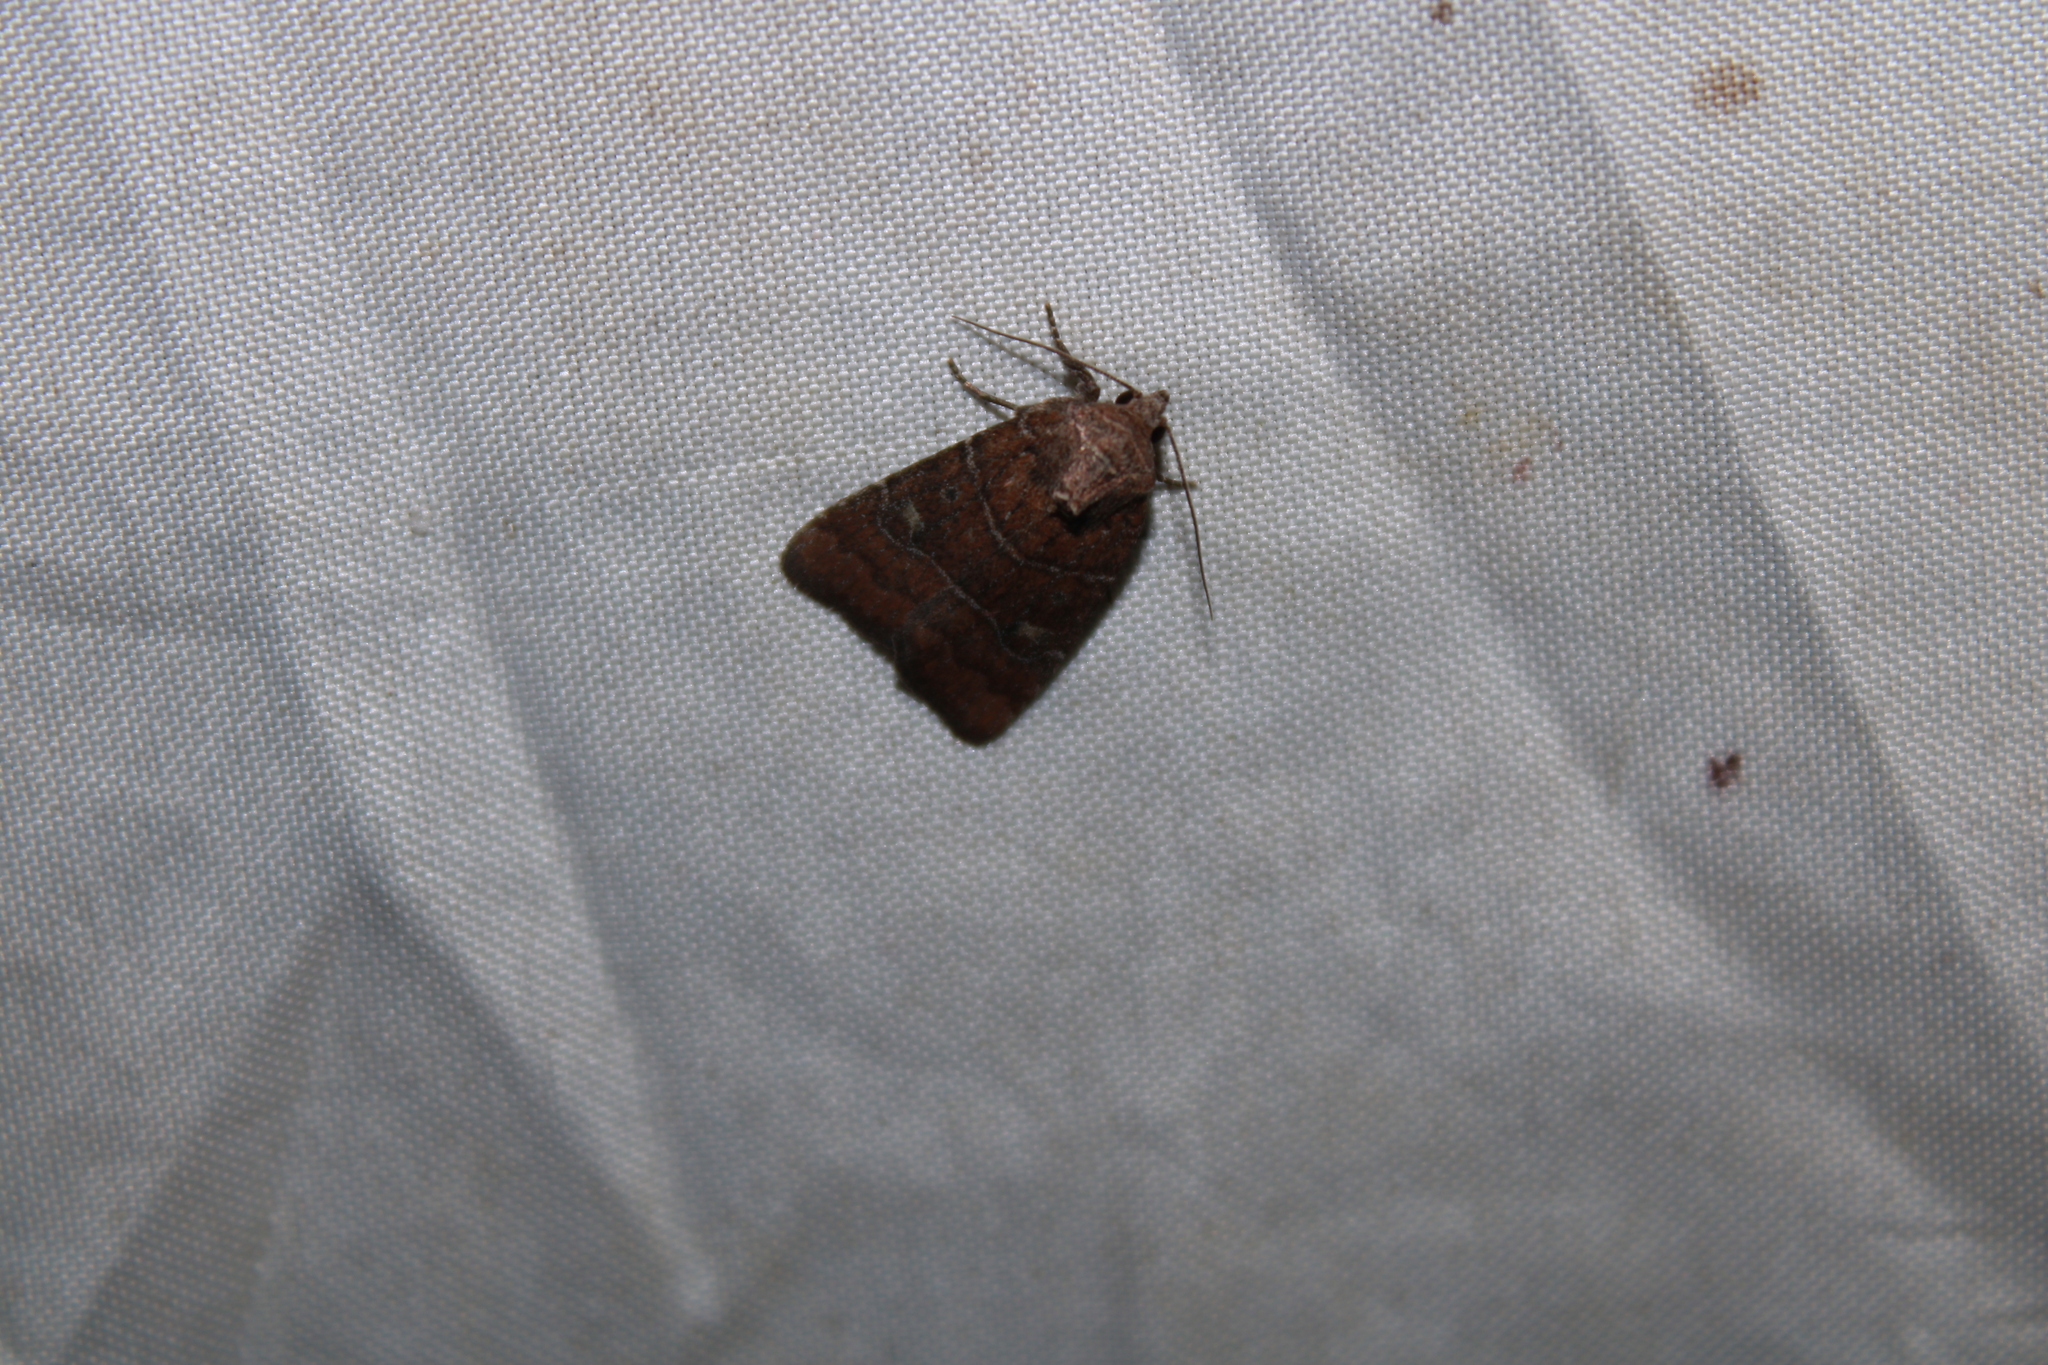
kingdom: Animalia
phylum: Arthropoda
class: Insecta
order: Lepidoptera
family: Noctuidae
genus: Elaphria
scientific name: Elaphria grata
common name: Grateful midget moth
